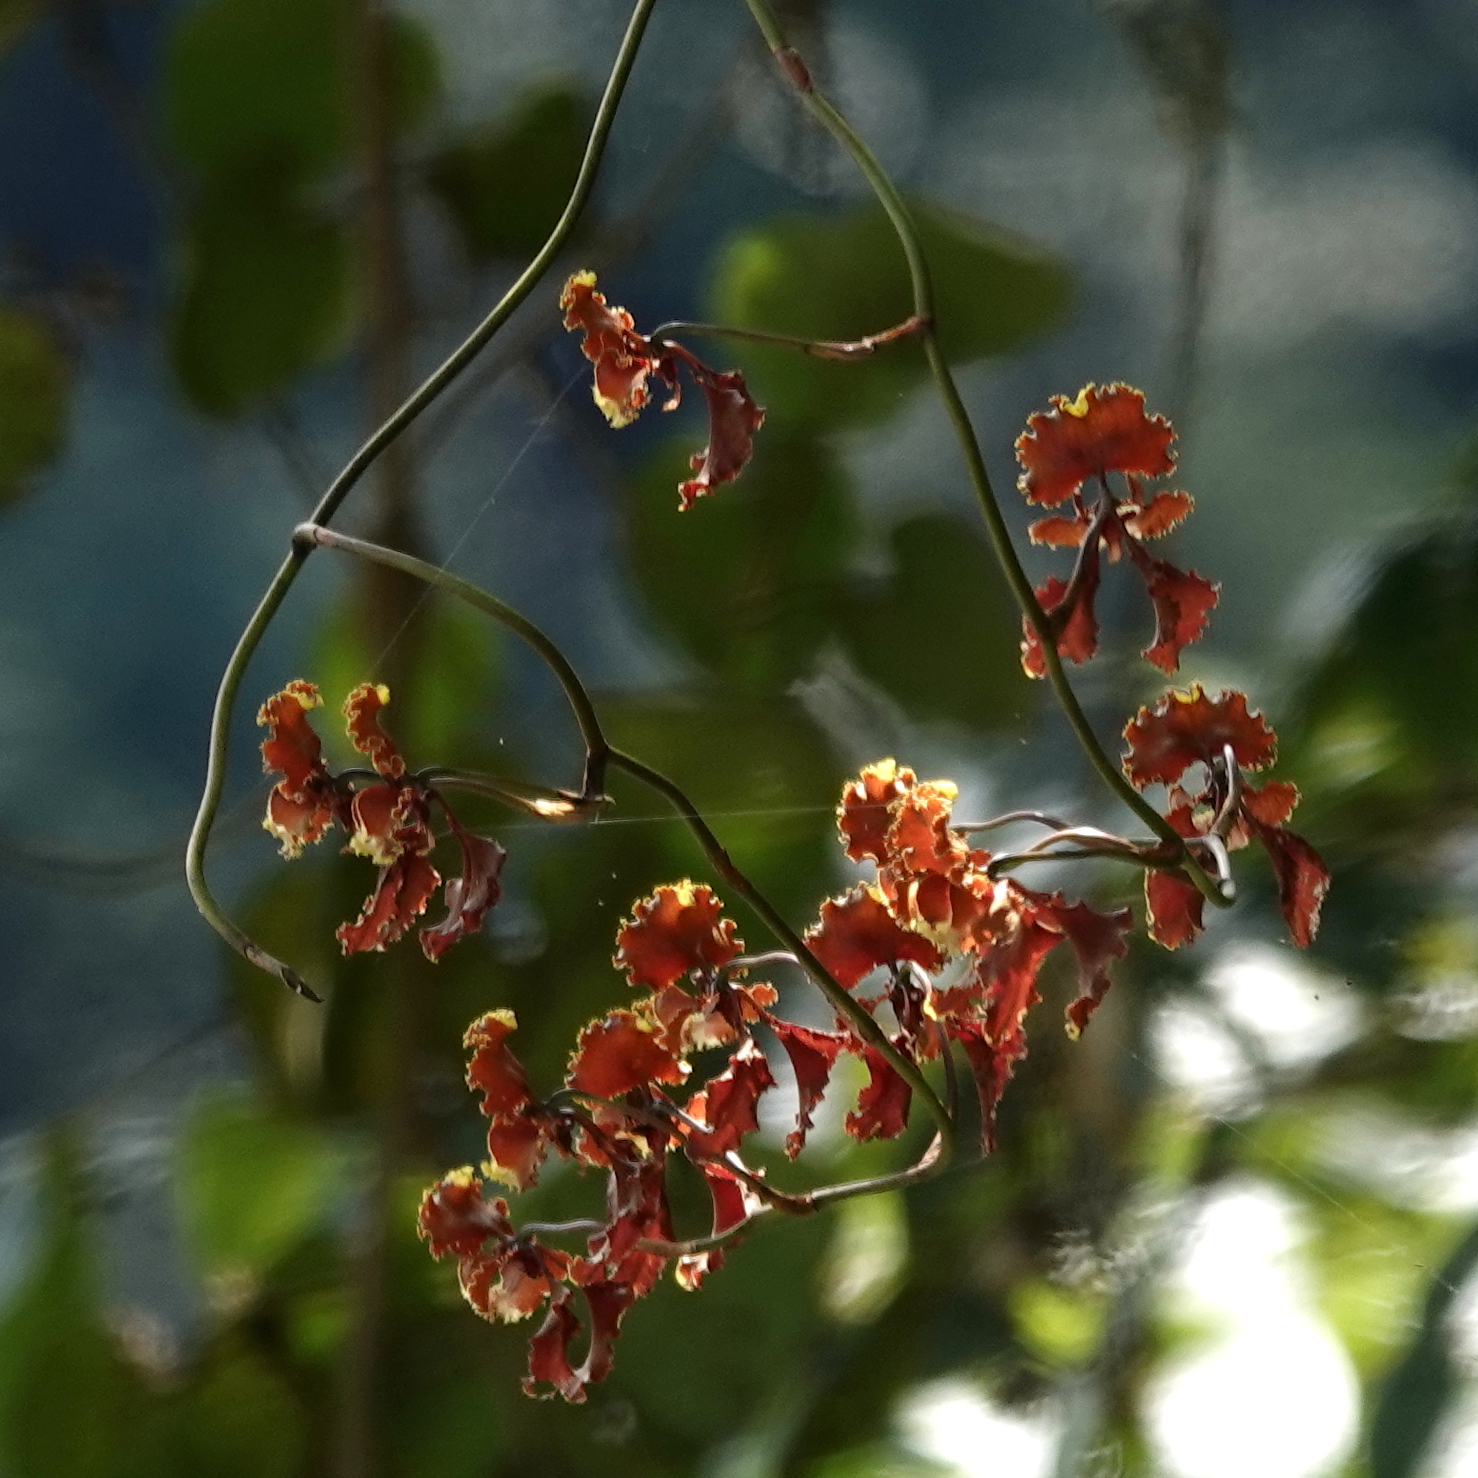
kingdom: Plantae
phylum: Tracheophyta
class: Liliopsida
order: Asparagales
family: Orchidaceae
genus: Cyrtochilum
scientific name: Cyrtochilum serratum
